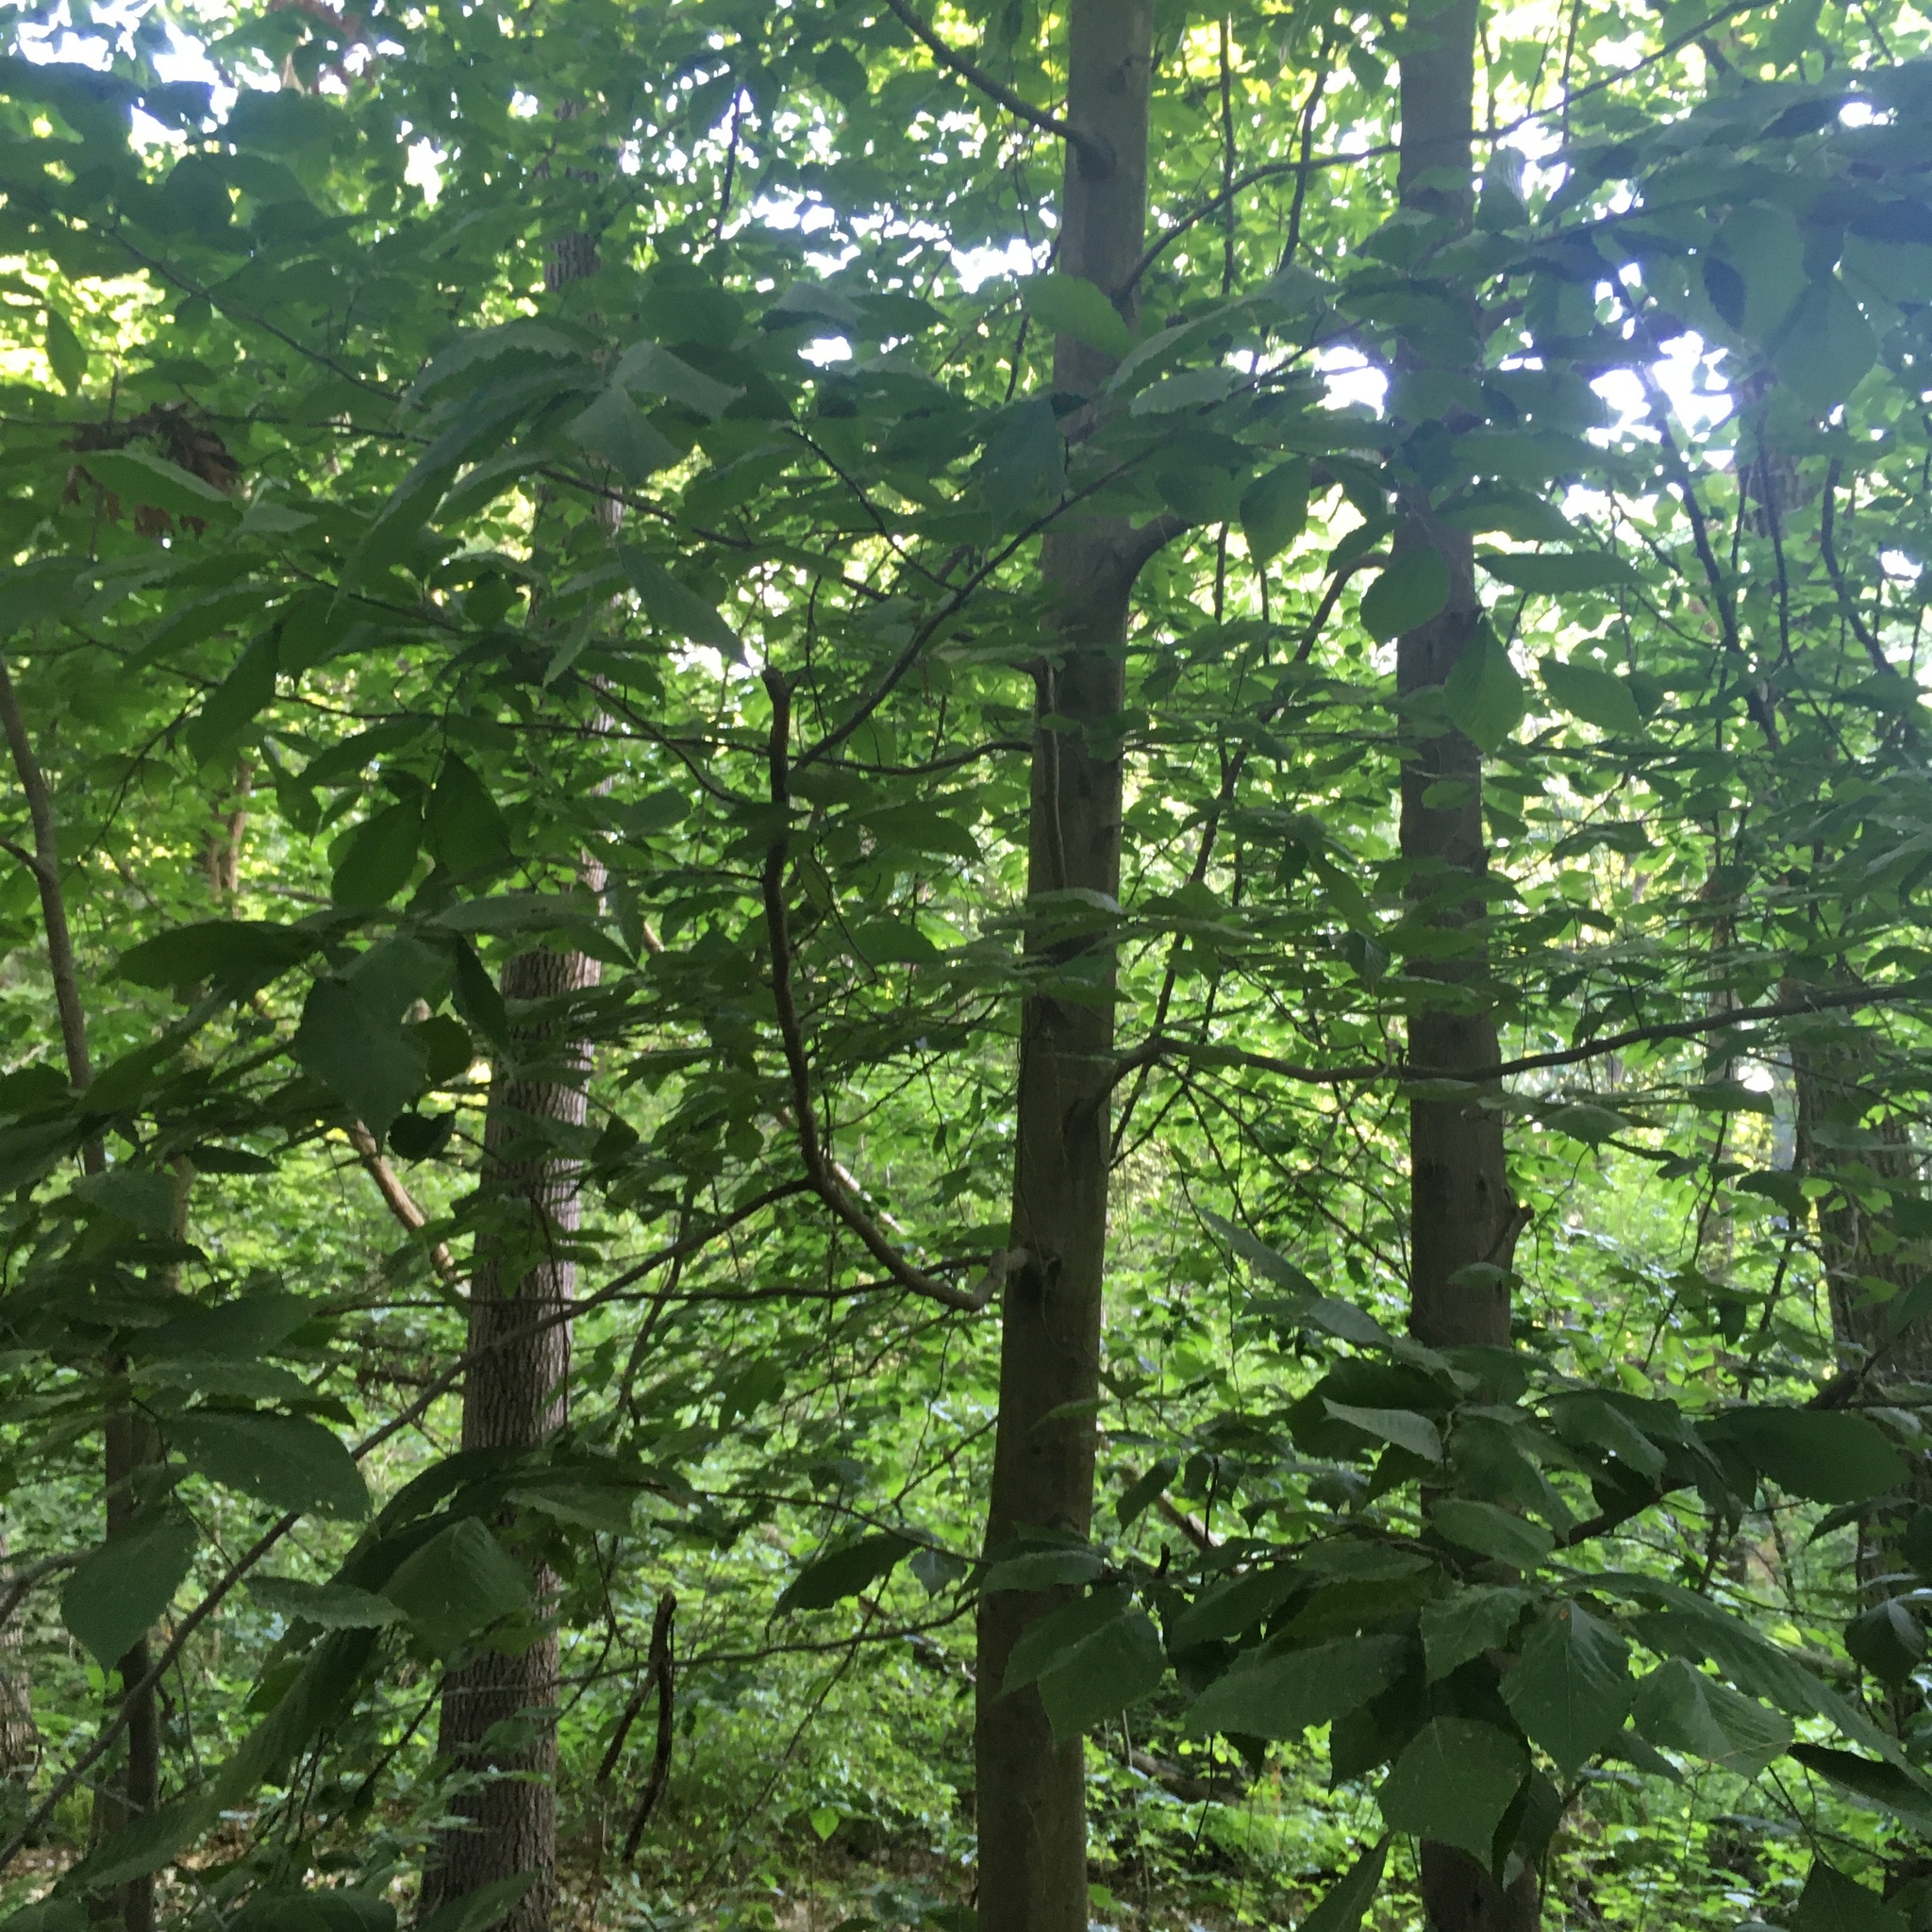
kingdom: Plantae
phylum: Tracheophyta
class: Magnoliopsida
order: Fagales
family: Fagaceae
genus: Fagus
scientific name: Fagus grandifolia
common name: American beech
